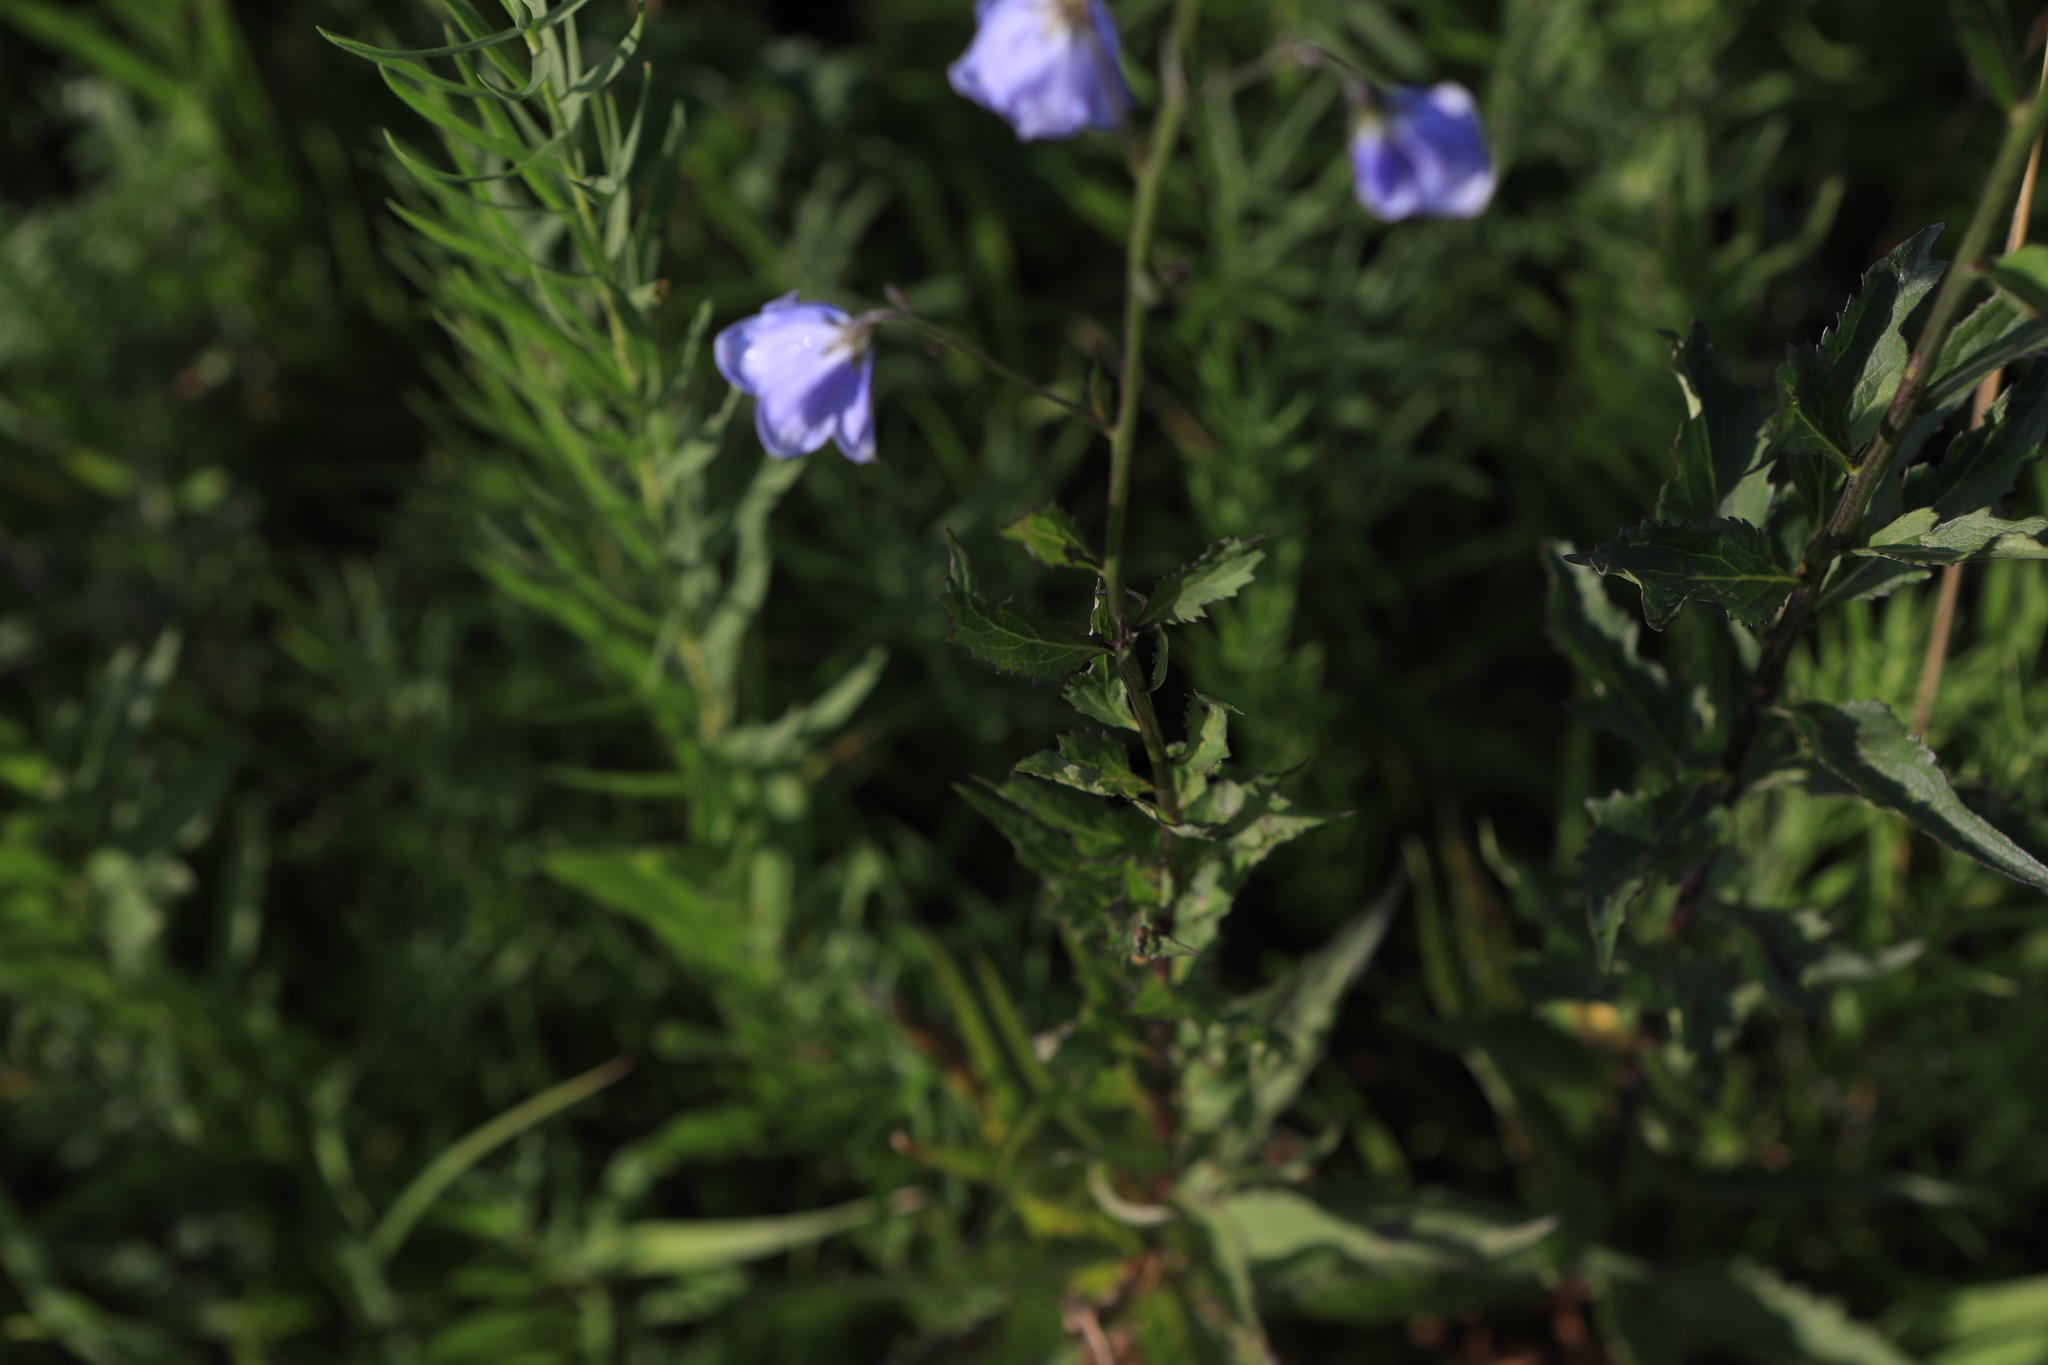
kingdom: Plantae
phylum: Tracheophyta
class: Magnoliopsida
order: Asterales
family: Campanulaceae
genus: Adenophora
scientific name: Adenophora liliifolia
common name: Lilyleaf ladybells
